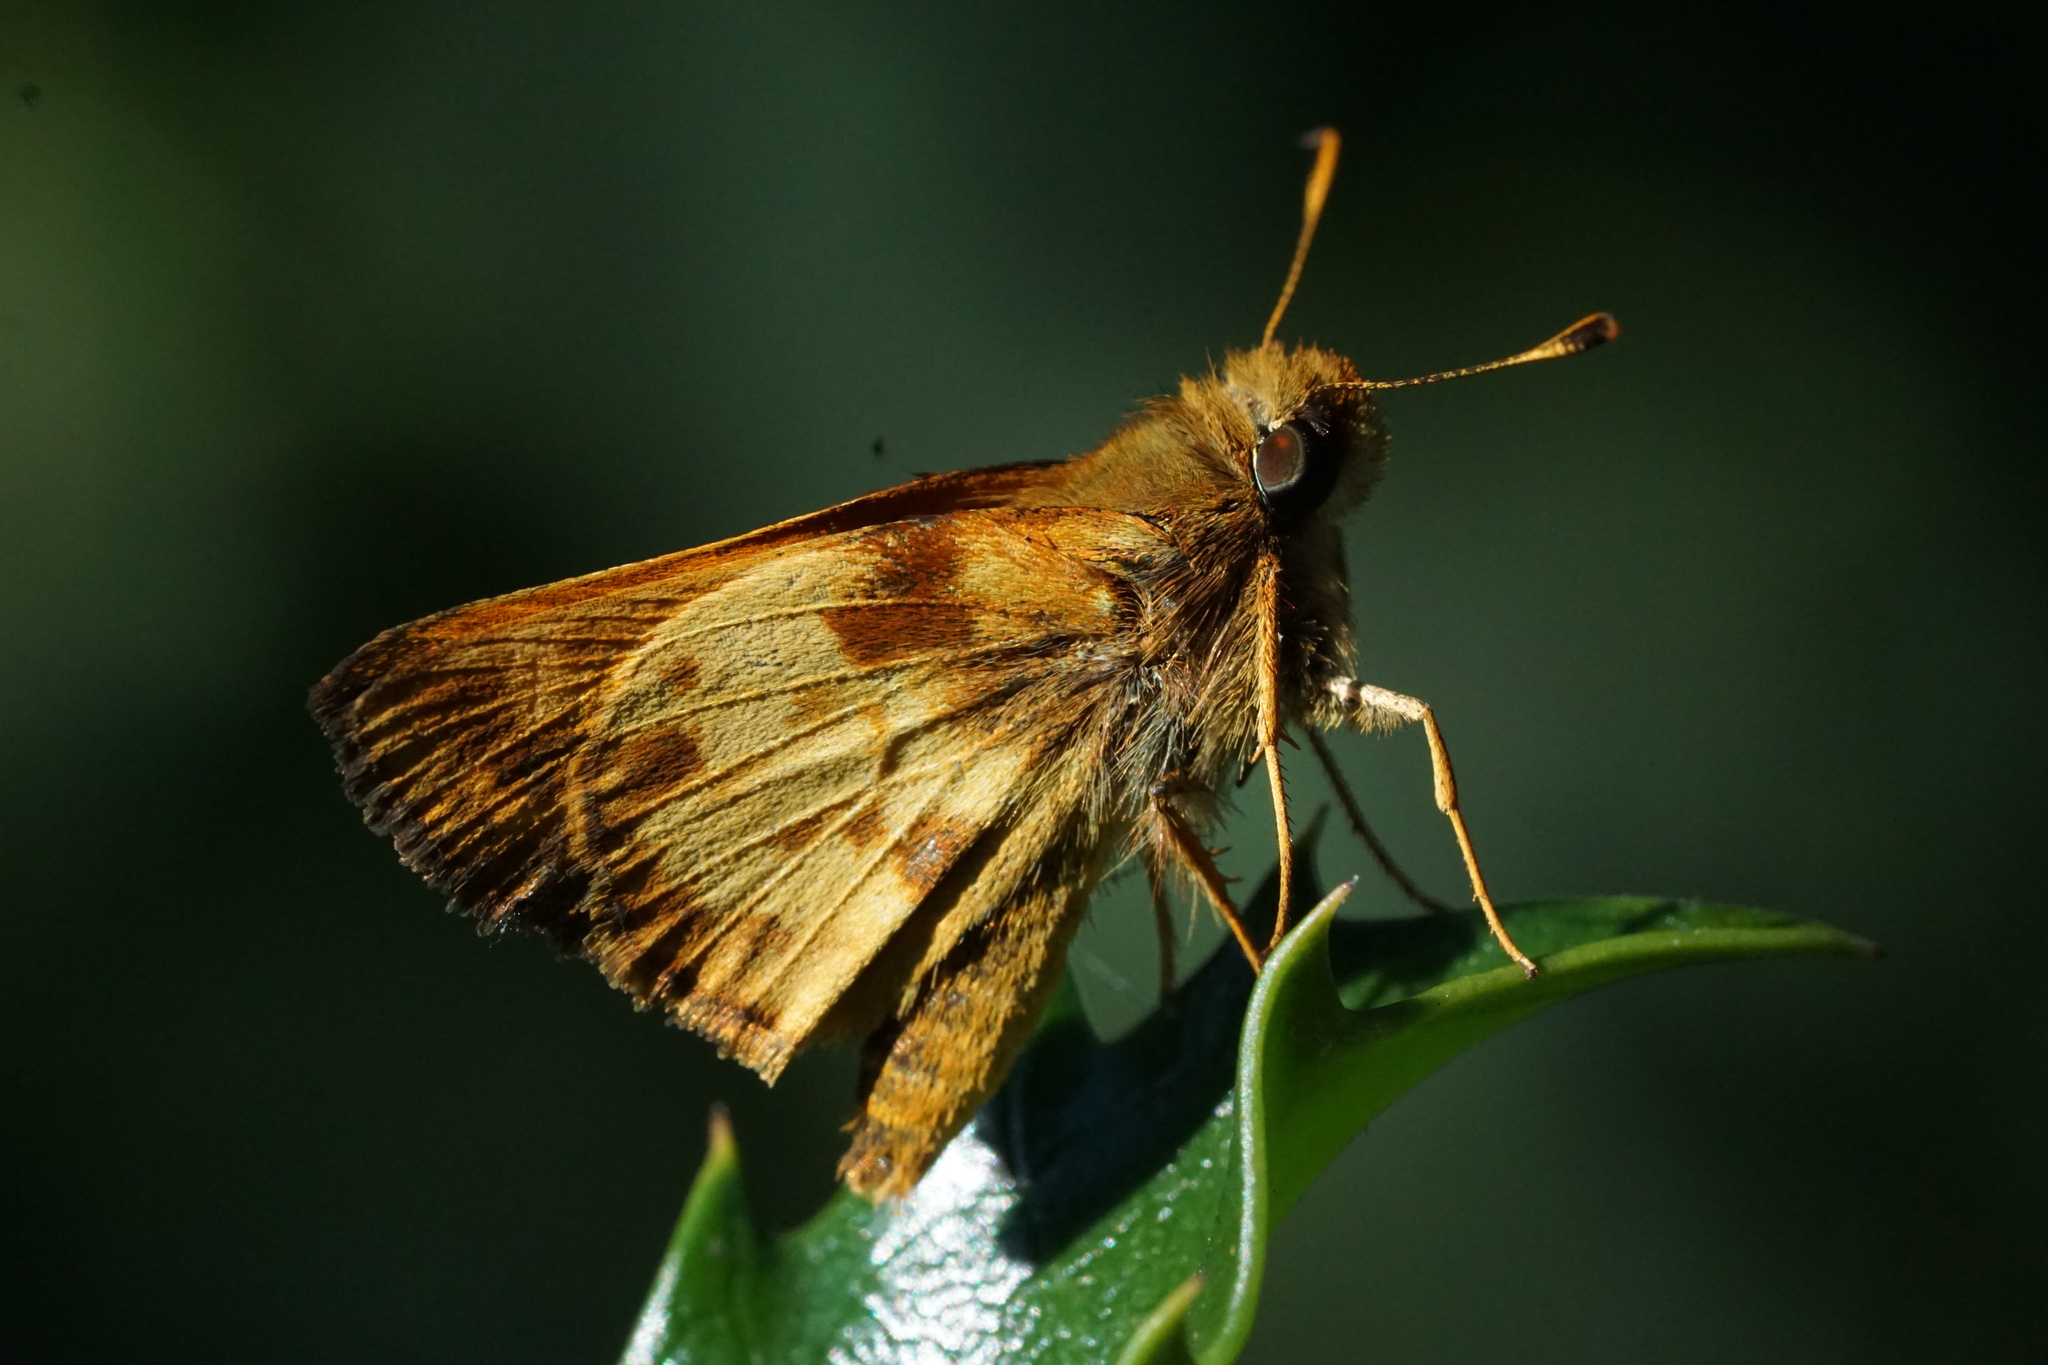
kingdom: Animalia
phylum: Arthropoda
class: Insecta
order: Lepidoptera
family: Hesperiidae
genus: Lon
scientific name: Lon zabulon
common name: Zabulon skipper
